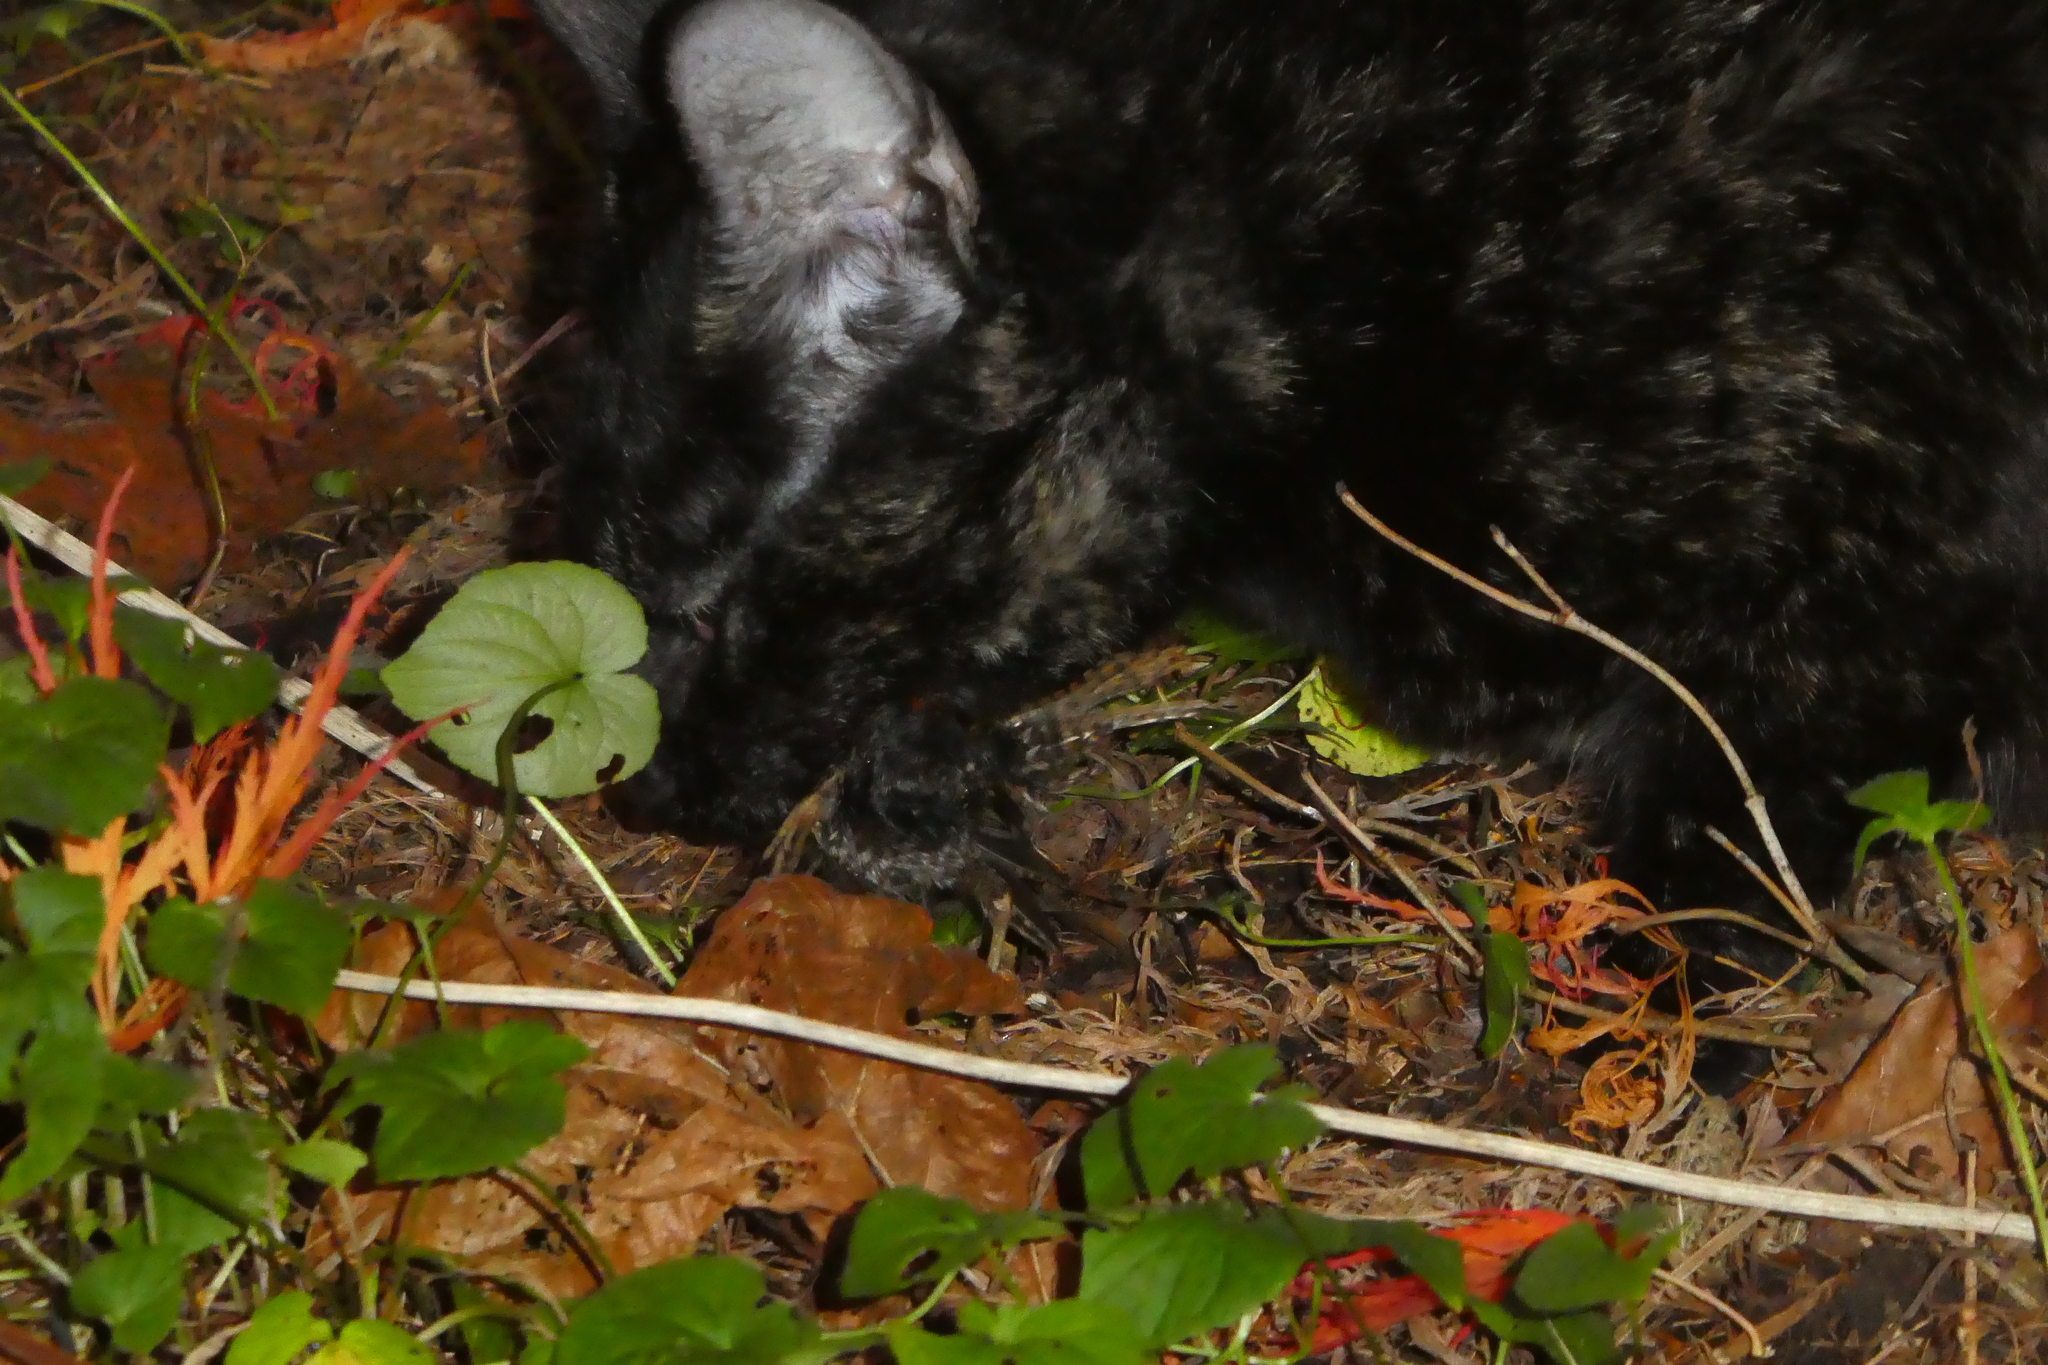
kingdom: Animalia
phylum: Chordata
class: Aves
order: Passeriformes
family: Troglodytidae
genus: Troglodytes
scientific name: Troglodytes pacificus
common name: Pacific wren
